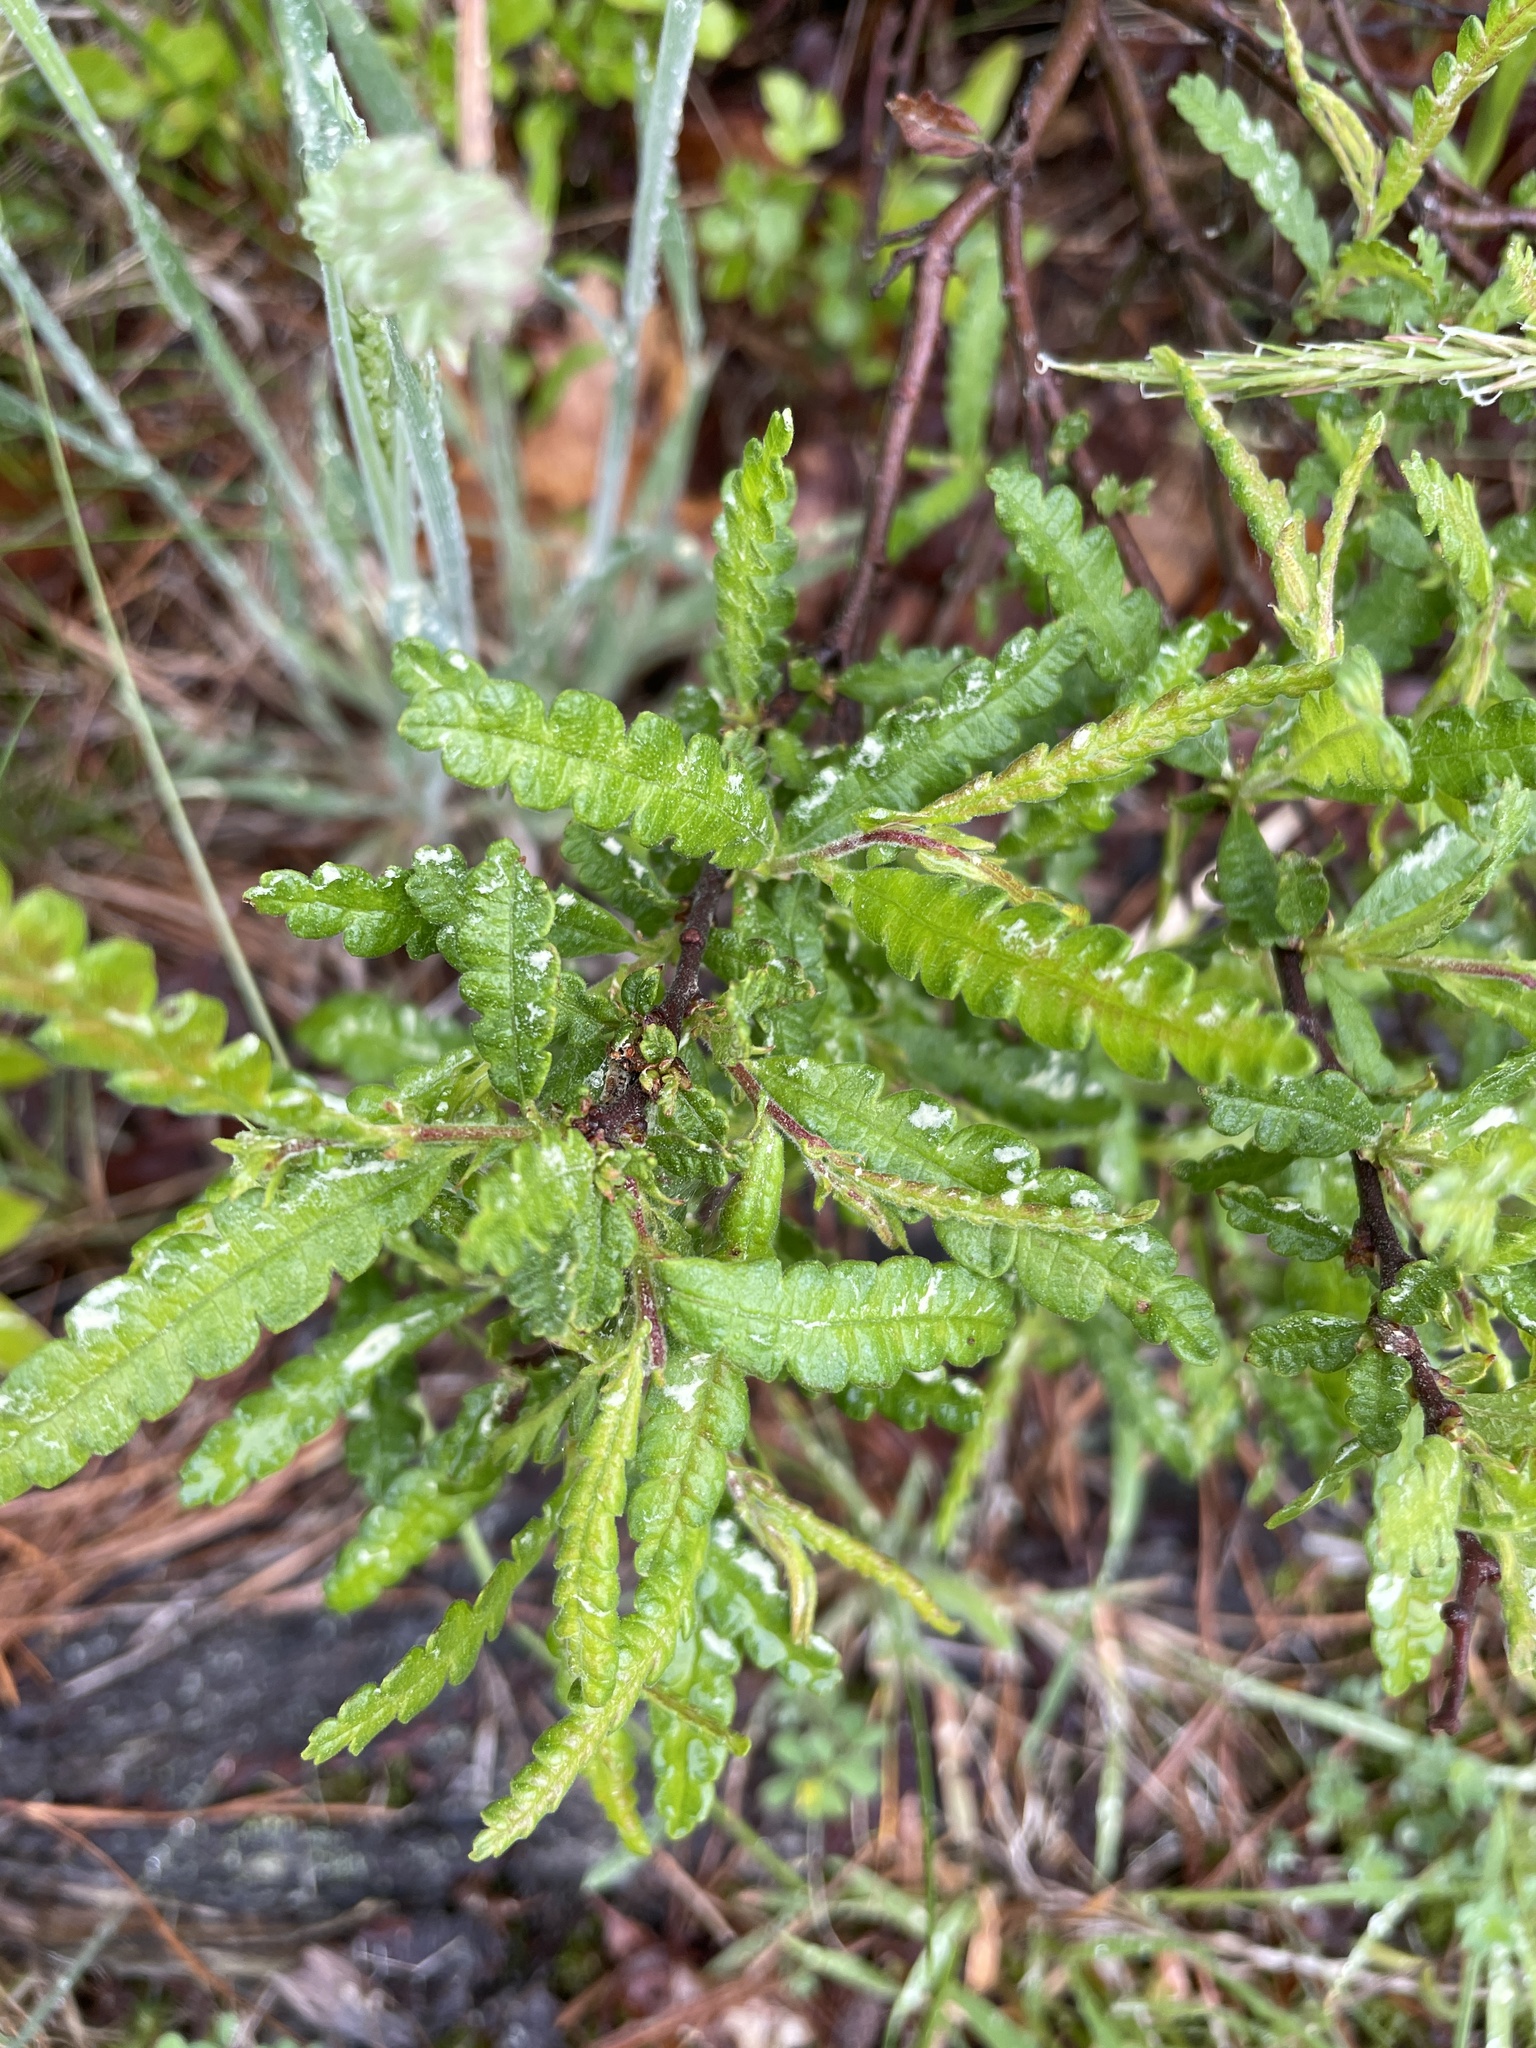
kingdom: Plantae
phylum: Tracheophyta
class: Magnoliopsida
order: Fagales
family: Myricaceae
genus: Comptonia
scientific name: Comptonia peregrina
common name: Sweet-fern
